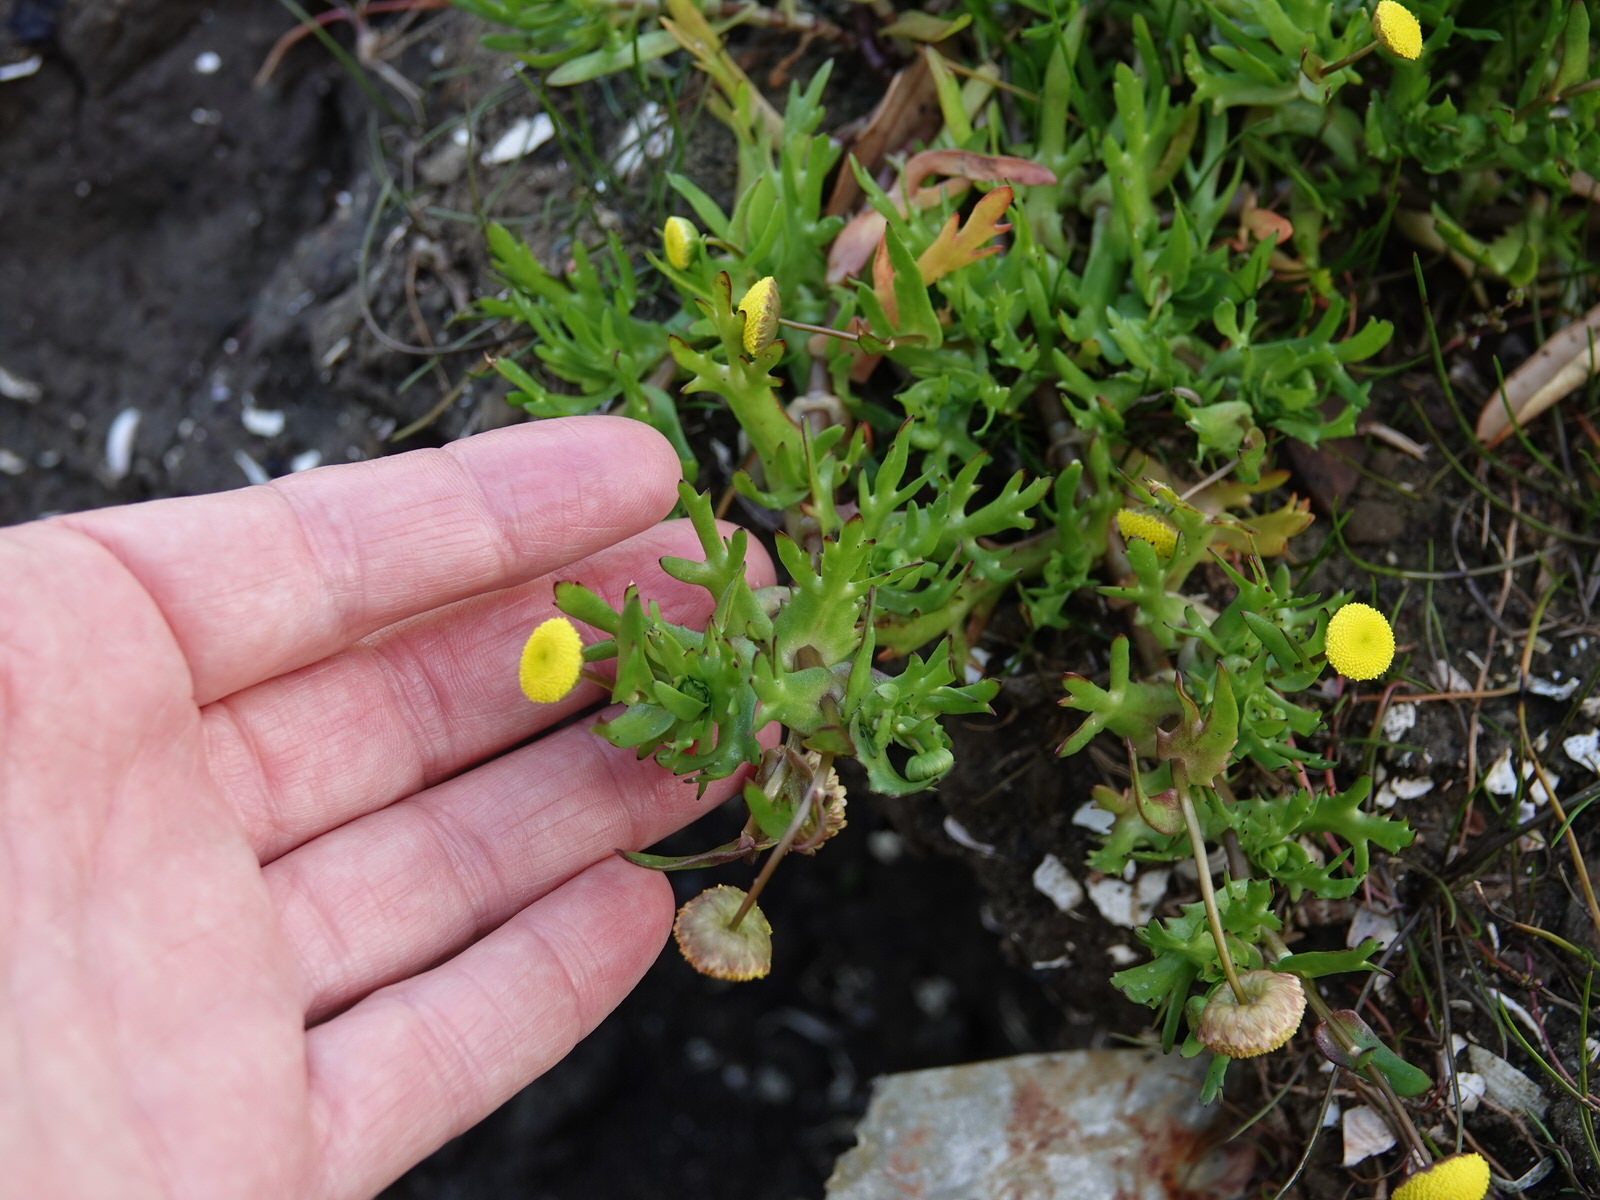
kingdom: Plantae
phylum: Tracheophyta
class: Magnoliopsida
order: Asterales
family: Asteraceae
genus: Cotula
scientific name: Cotula coronopifolia
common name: Buttonweed
